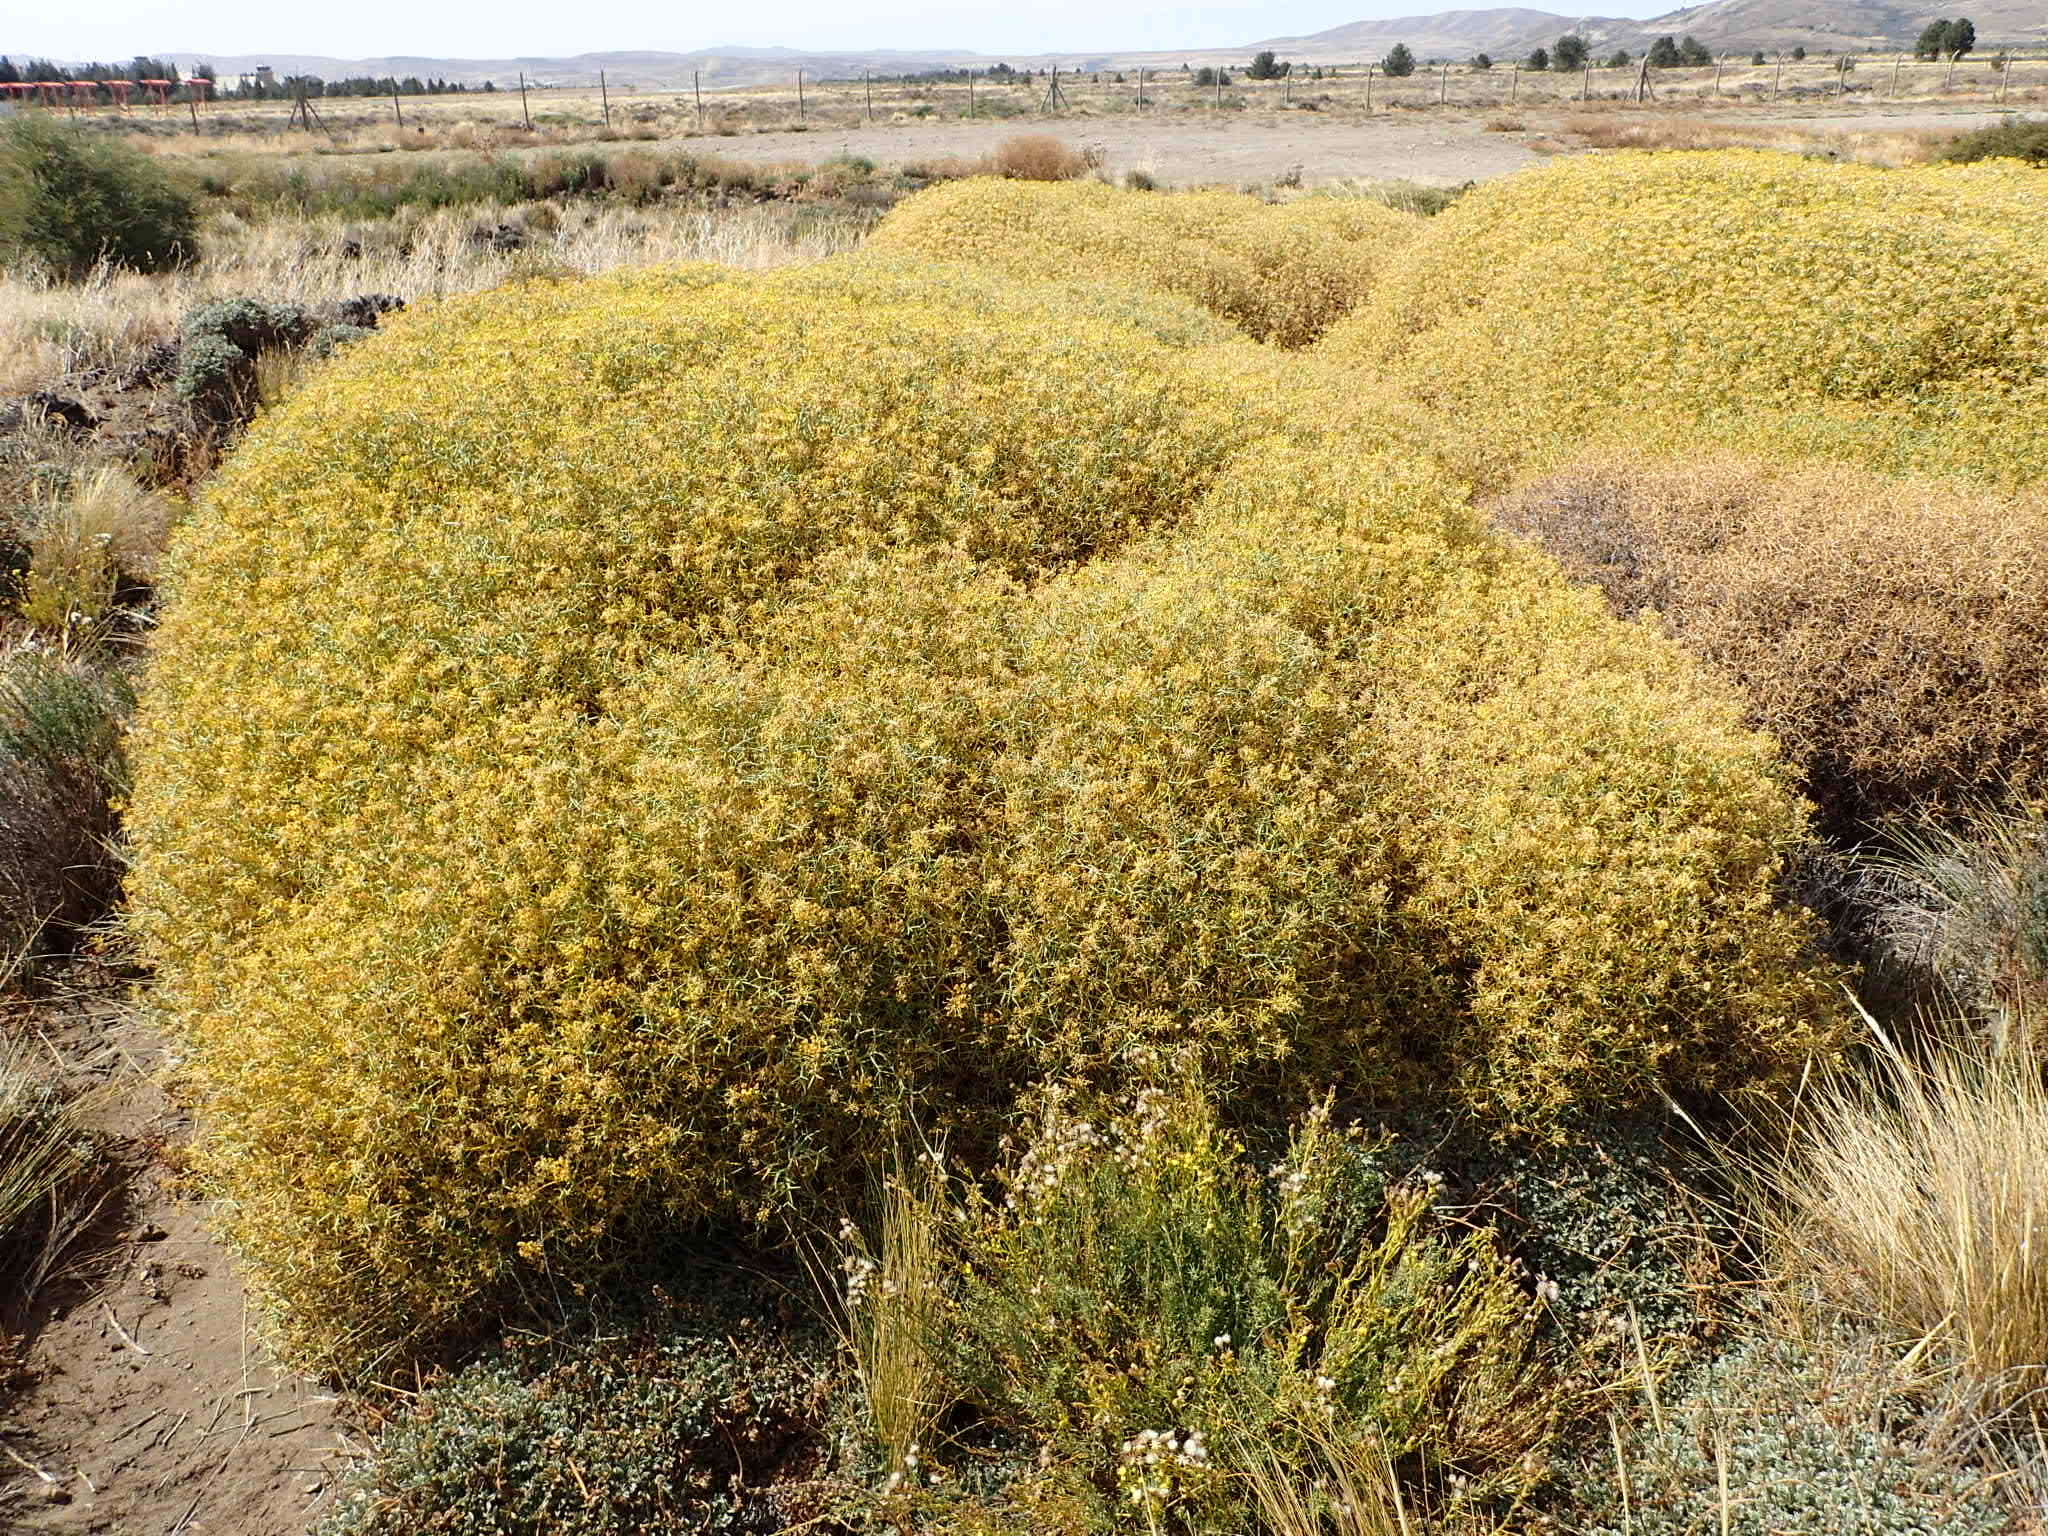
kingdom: Plantae
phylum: Tracheophyta
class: Magnoliopsida
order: Apiales
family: Apiaceae
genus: Azorella
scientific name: Azorella prolifera
